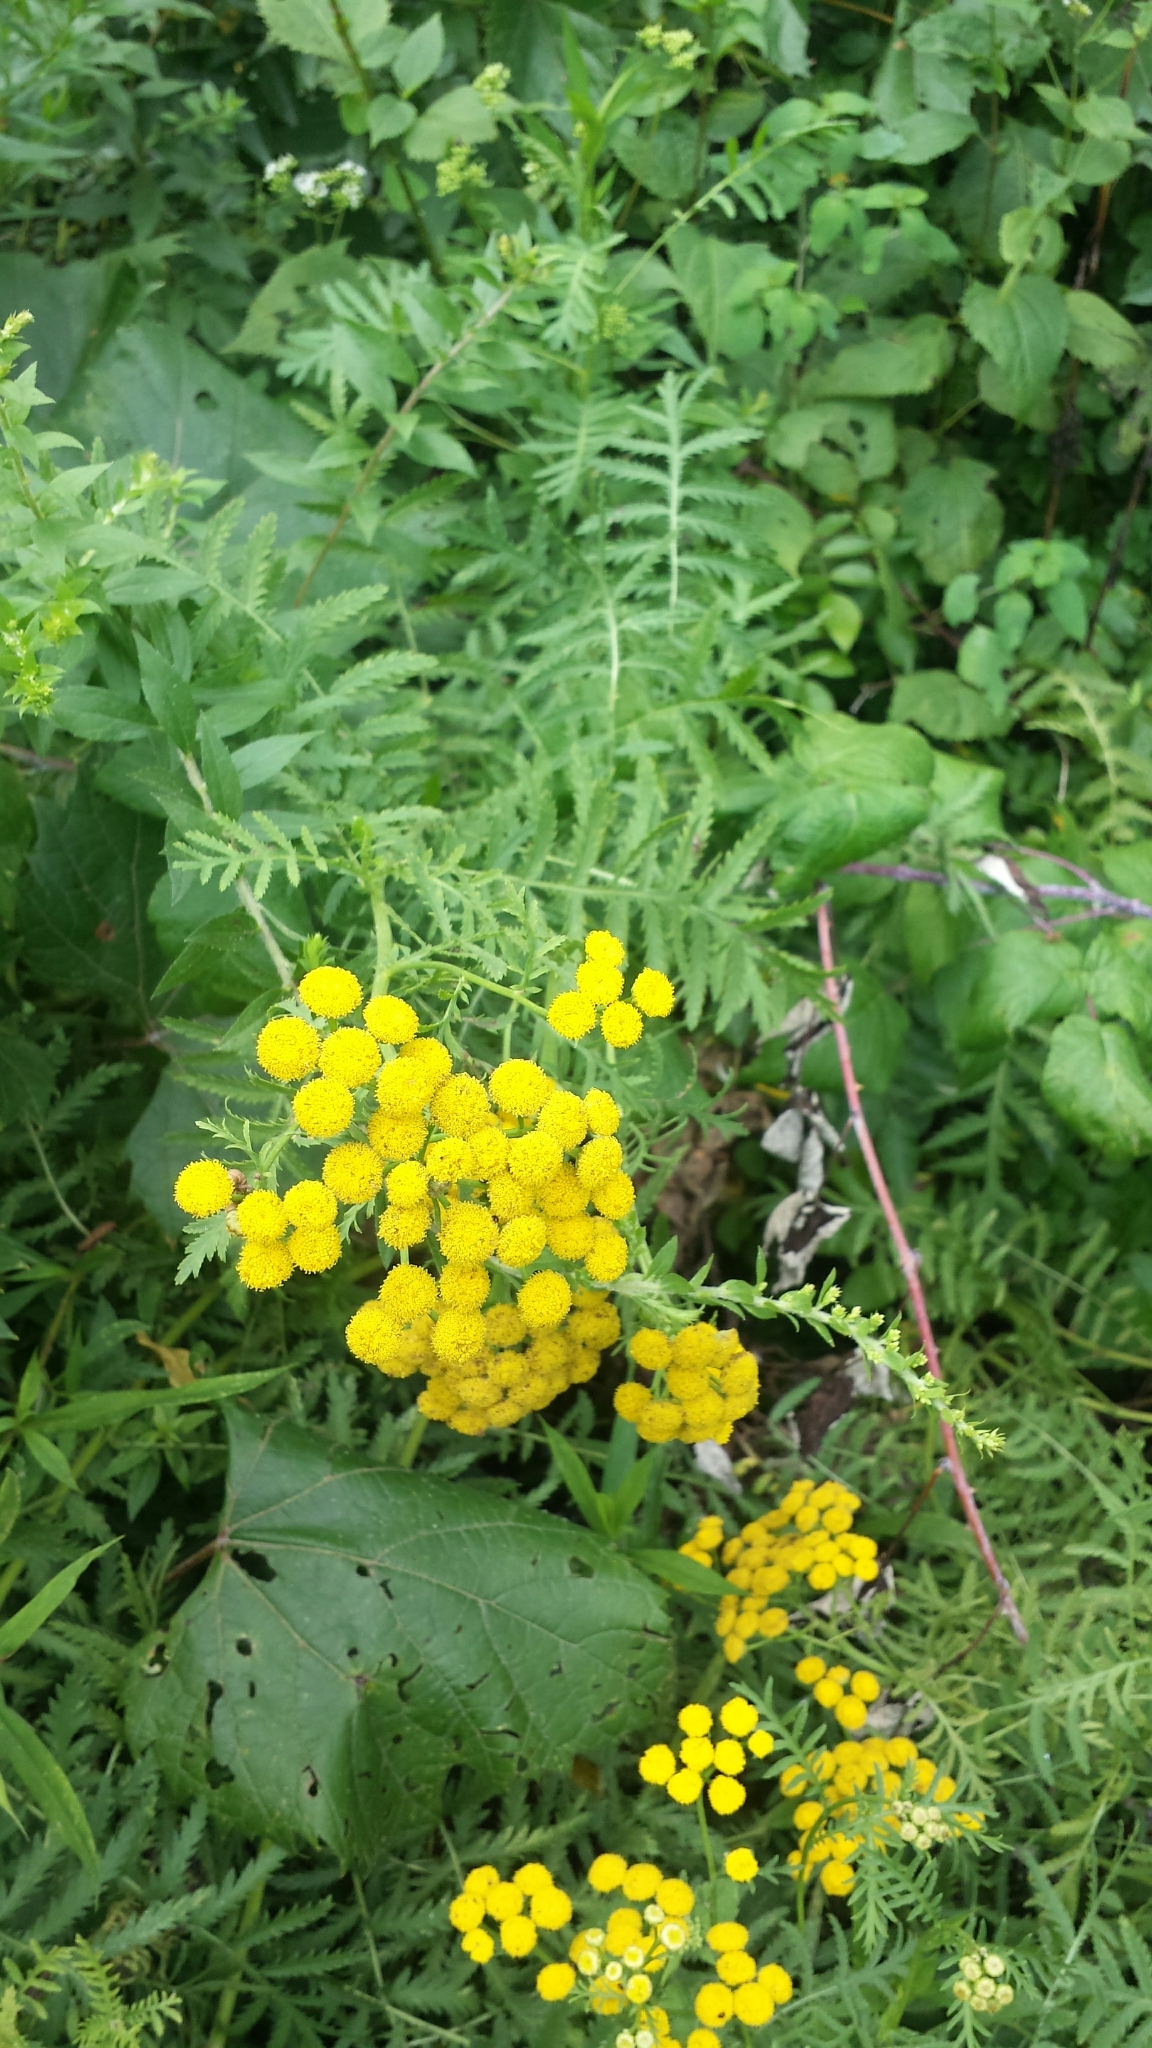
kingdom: Plantae
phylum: Tracheophyta
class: Magnoliopsida
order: Asterales
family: Asteraceae
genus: Tanacetum
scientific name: Tanacetum vulgare
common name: Common tansy
